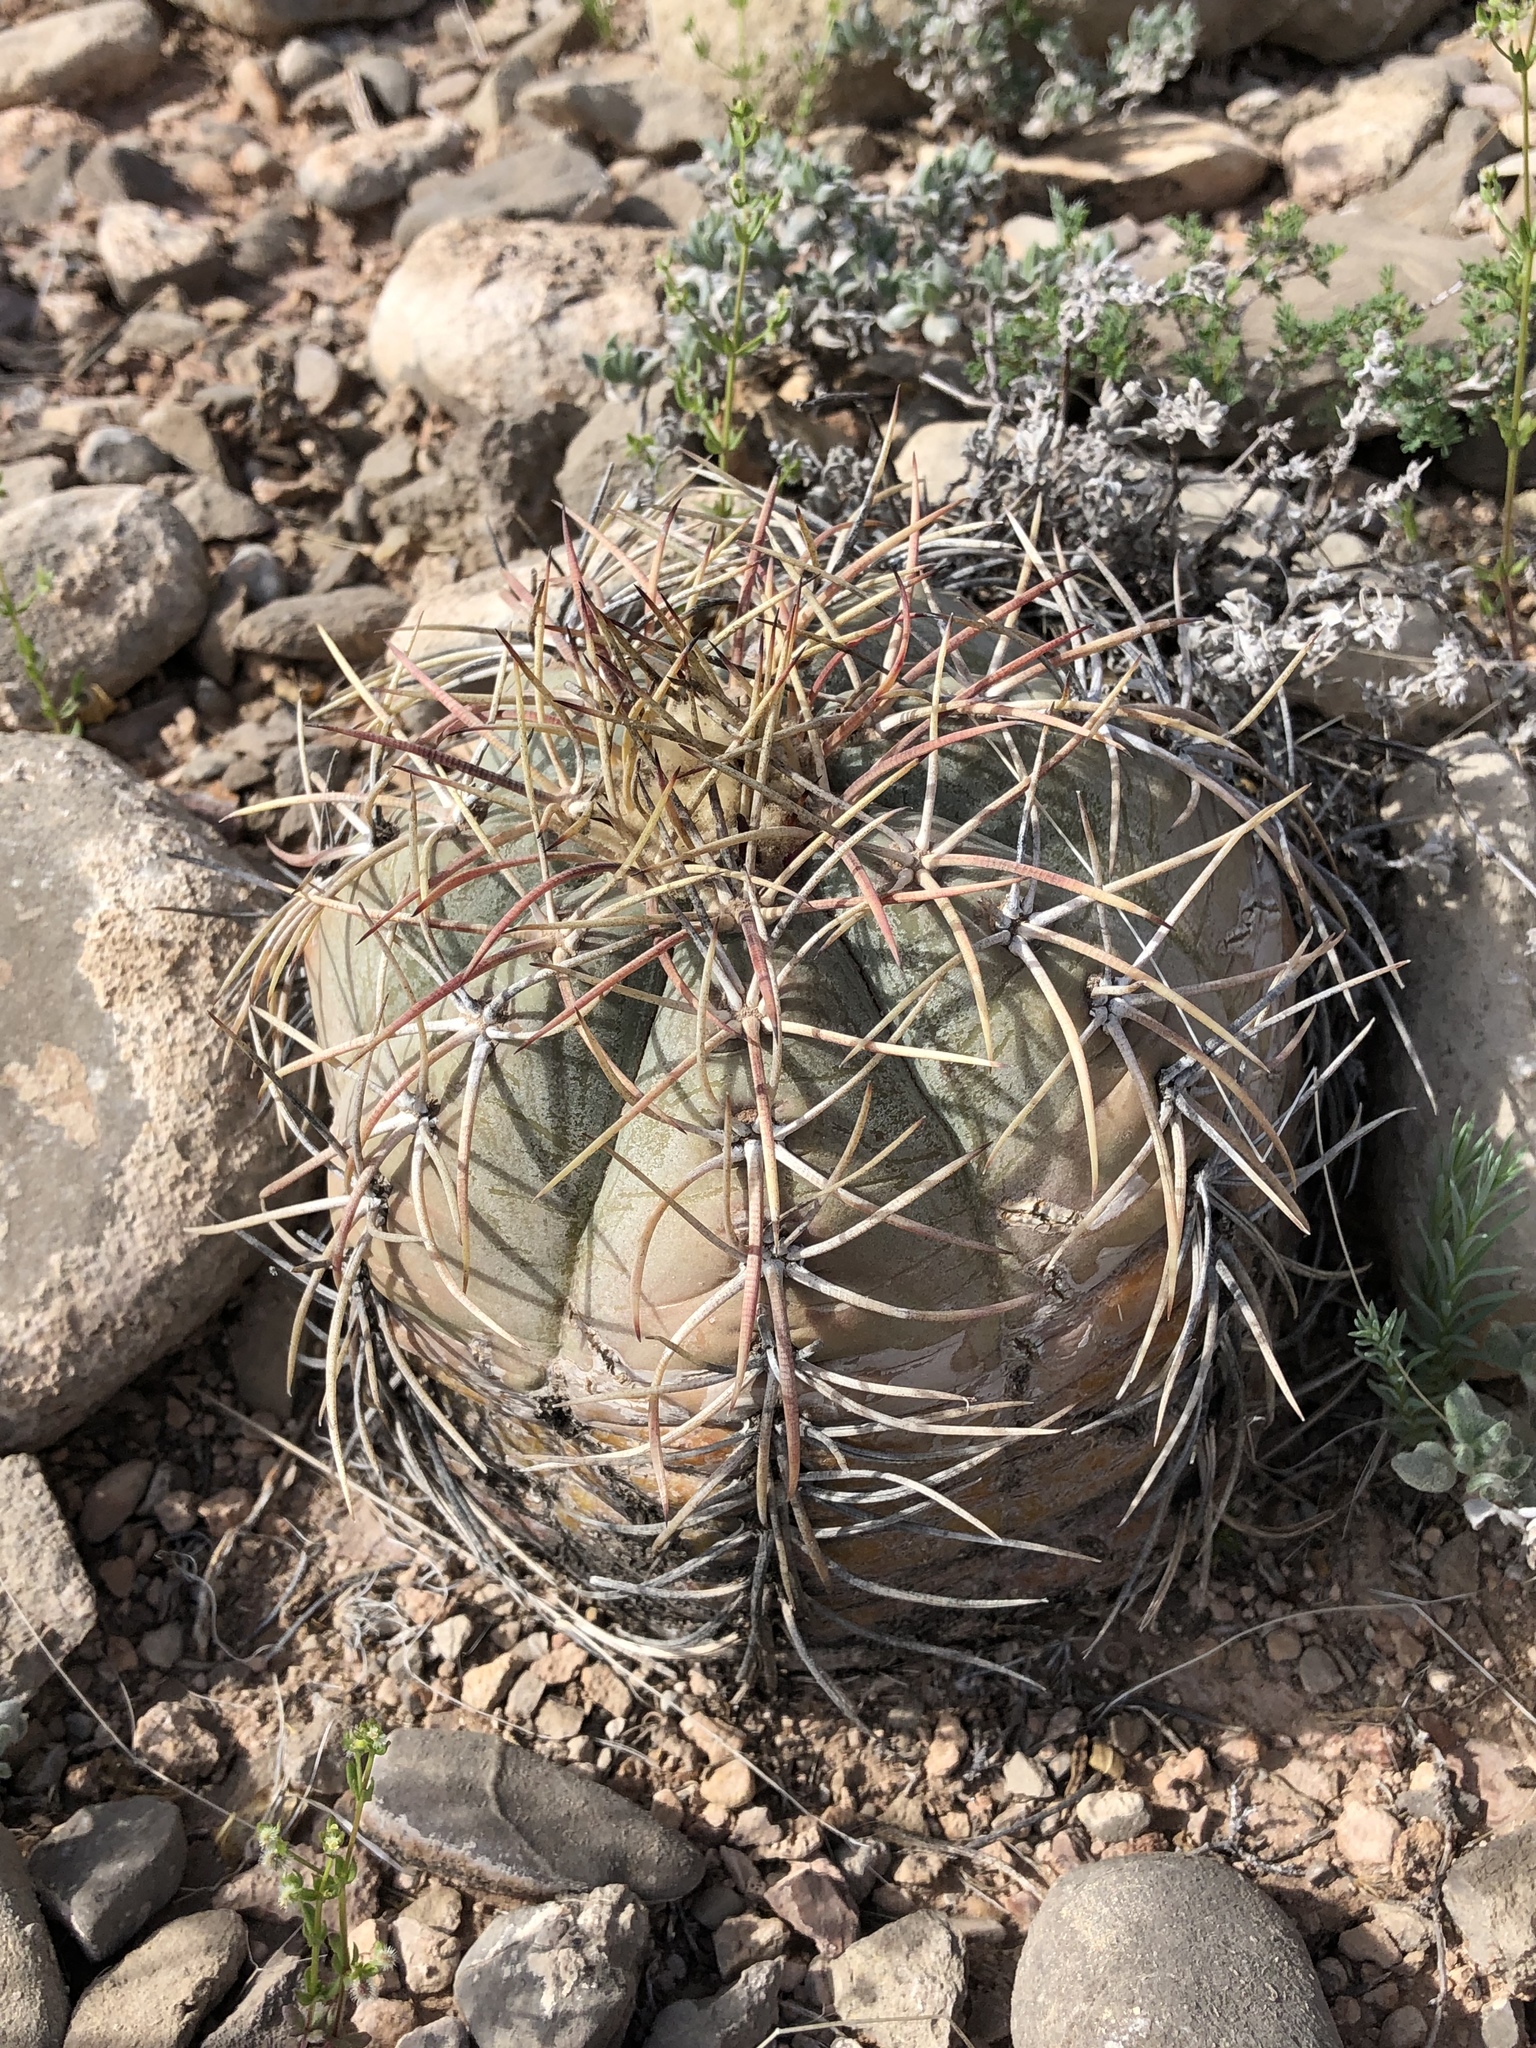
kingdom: Plantae
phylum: Tracheophyta
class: Magnoliopsida
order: Caryophyllales
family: Cactaceae
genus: Echinocactus
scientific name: Echinocactus horizonthalonius
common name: Devilshead
